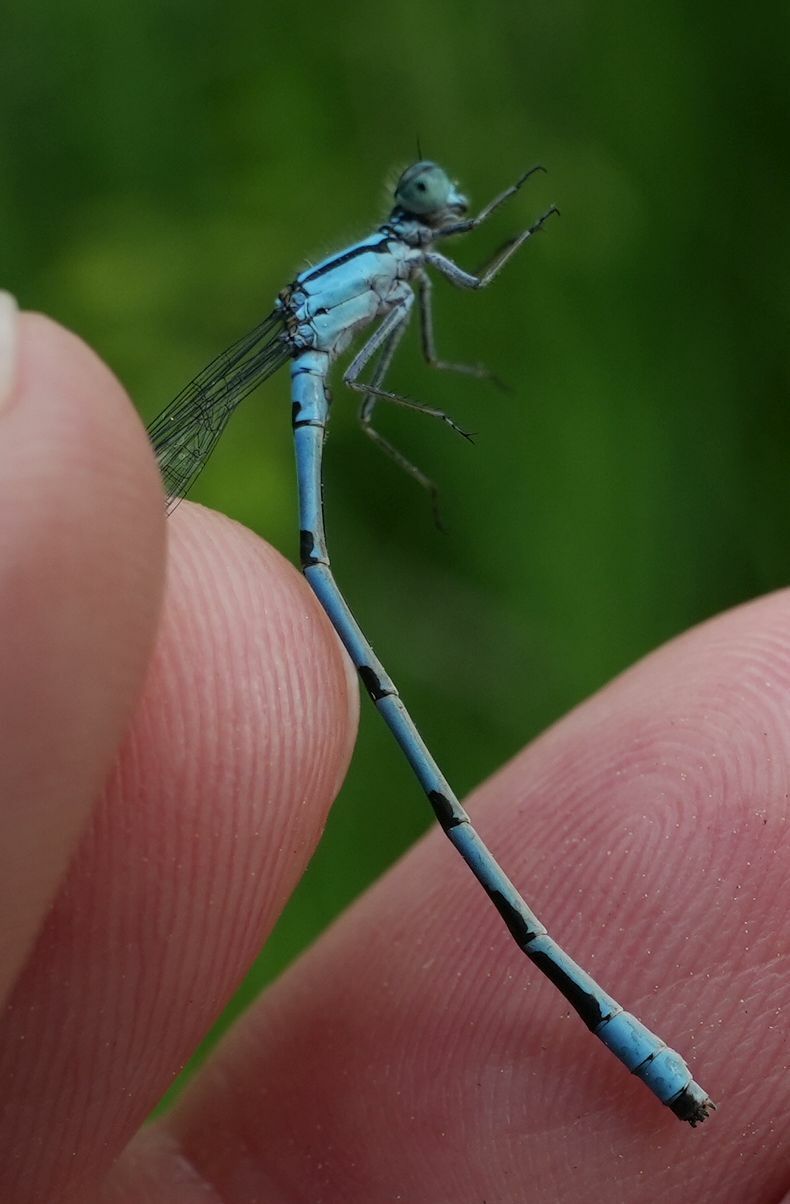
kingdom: Animalia
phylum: Arthropoda
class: Insecta
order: Odonata
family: Coenagrionidae
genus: Enallagma
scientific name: Enallagma ebrium
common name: Marsh bluet
